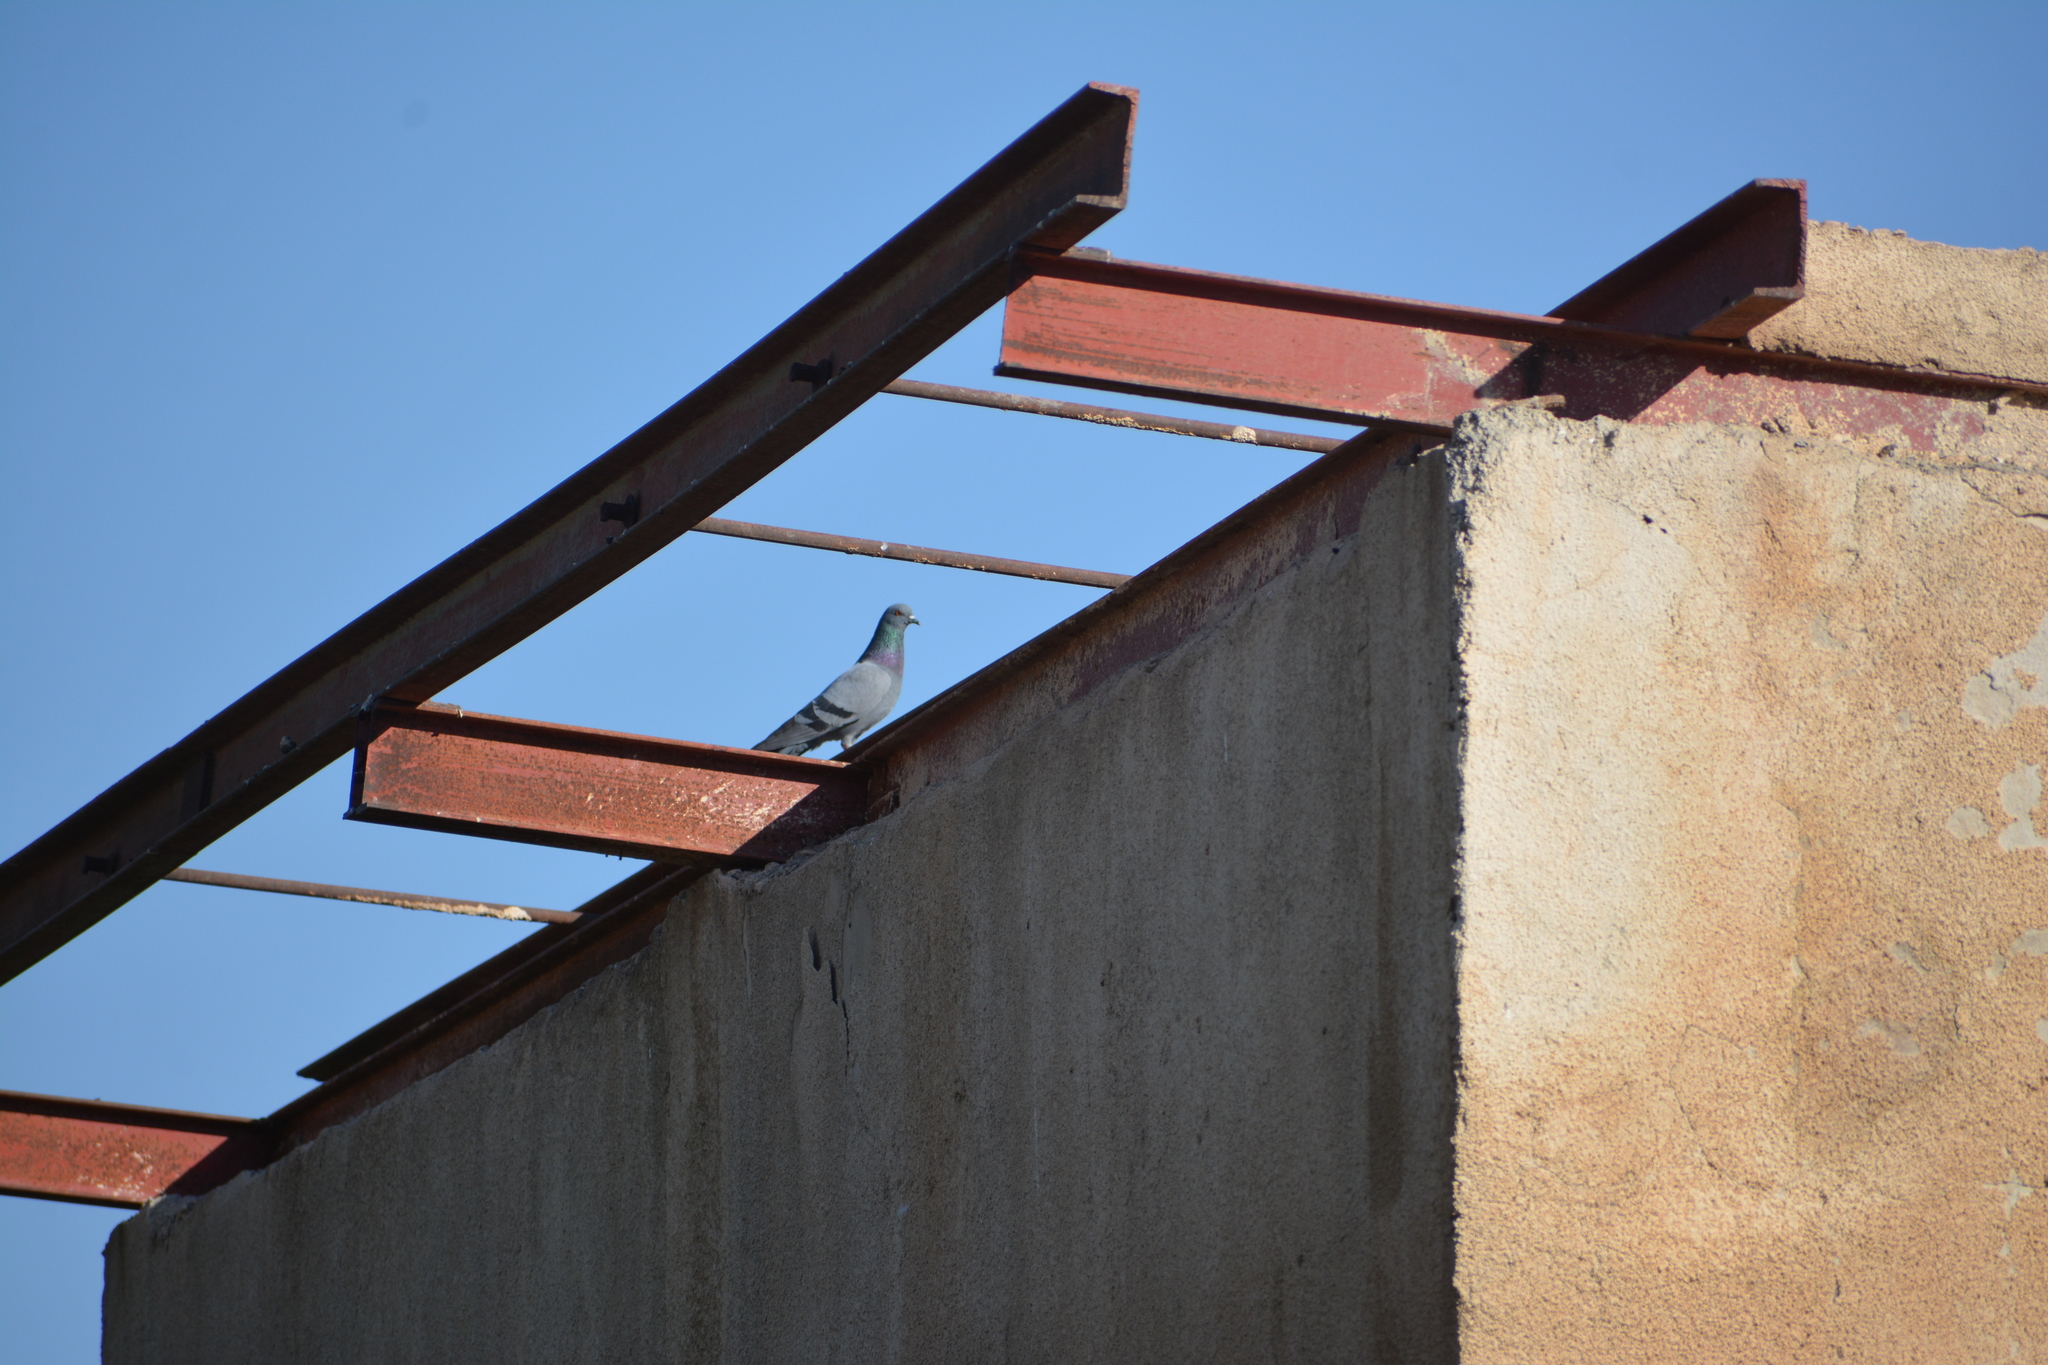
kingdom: Animalia
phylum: Chordata
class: Aves
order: Columbiformes
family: Columbidae
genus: Columba
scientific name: Columba livia
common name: Rock pigeon
